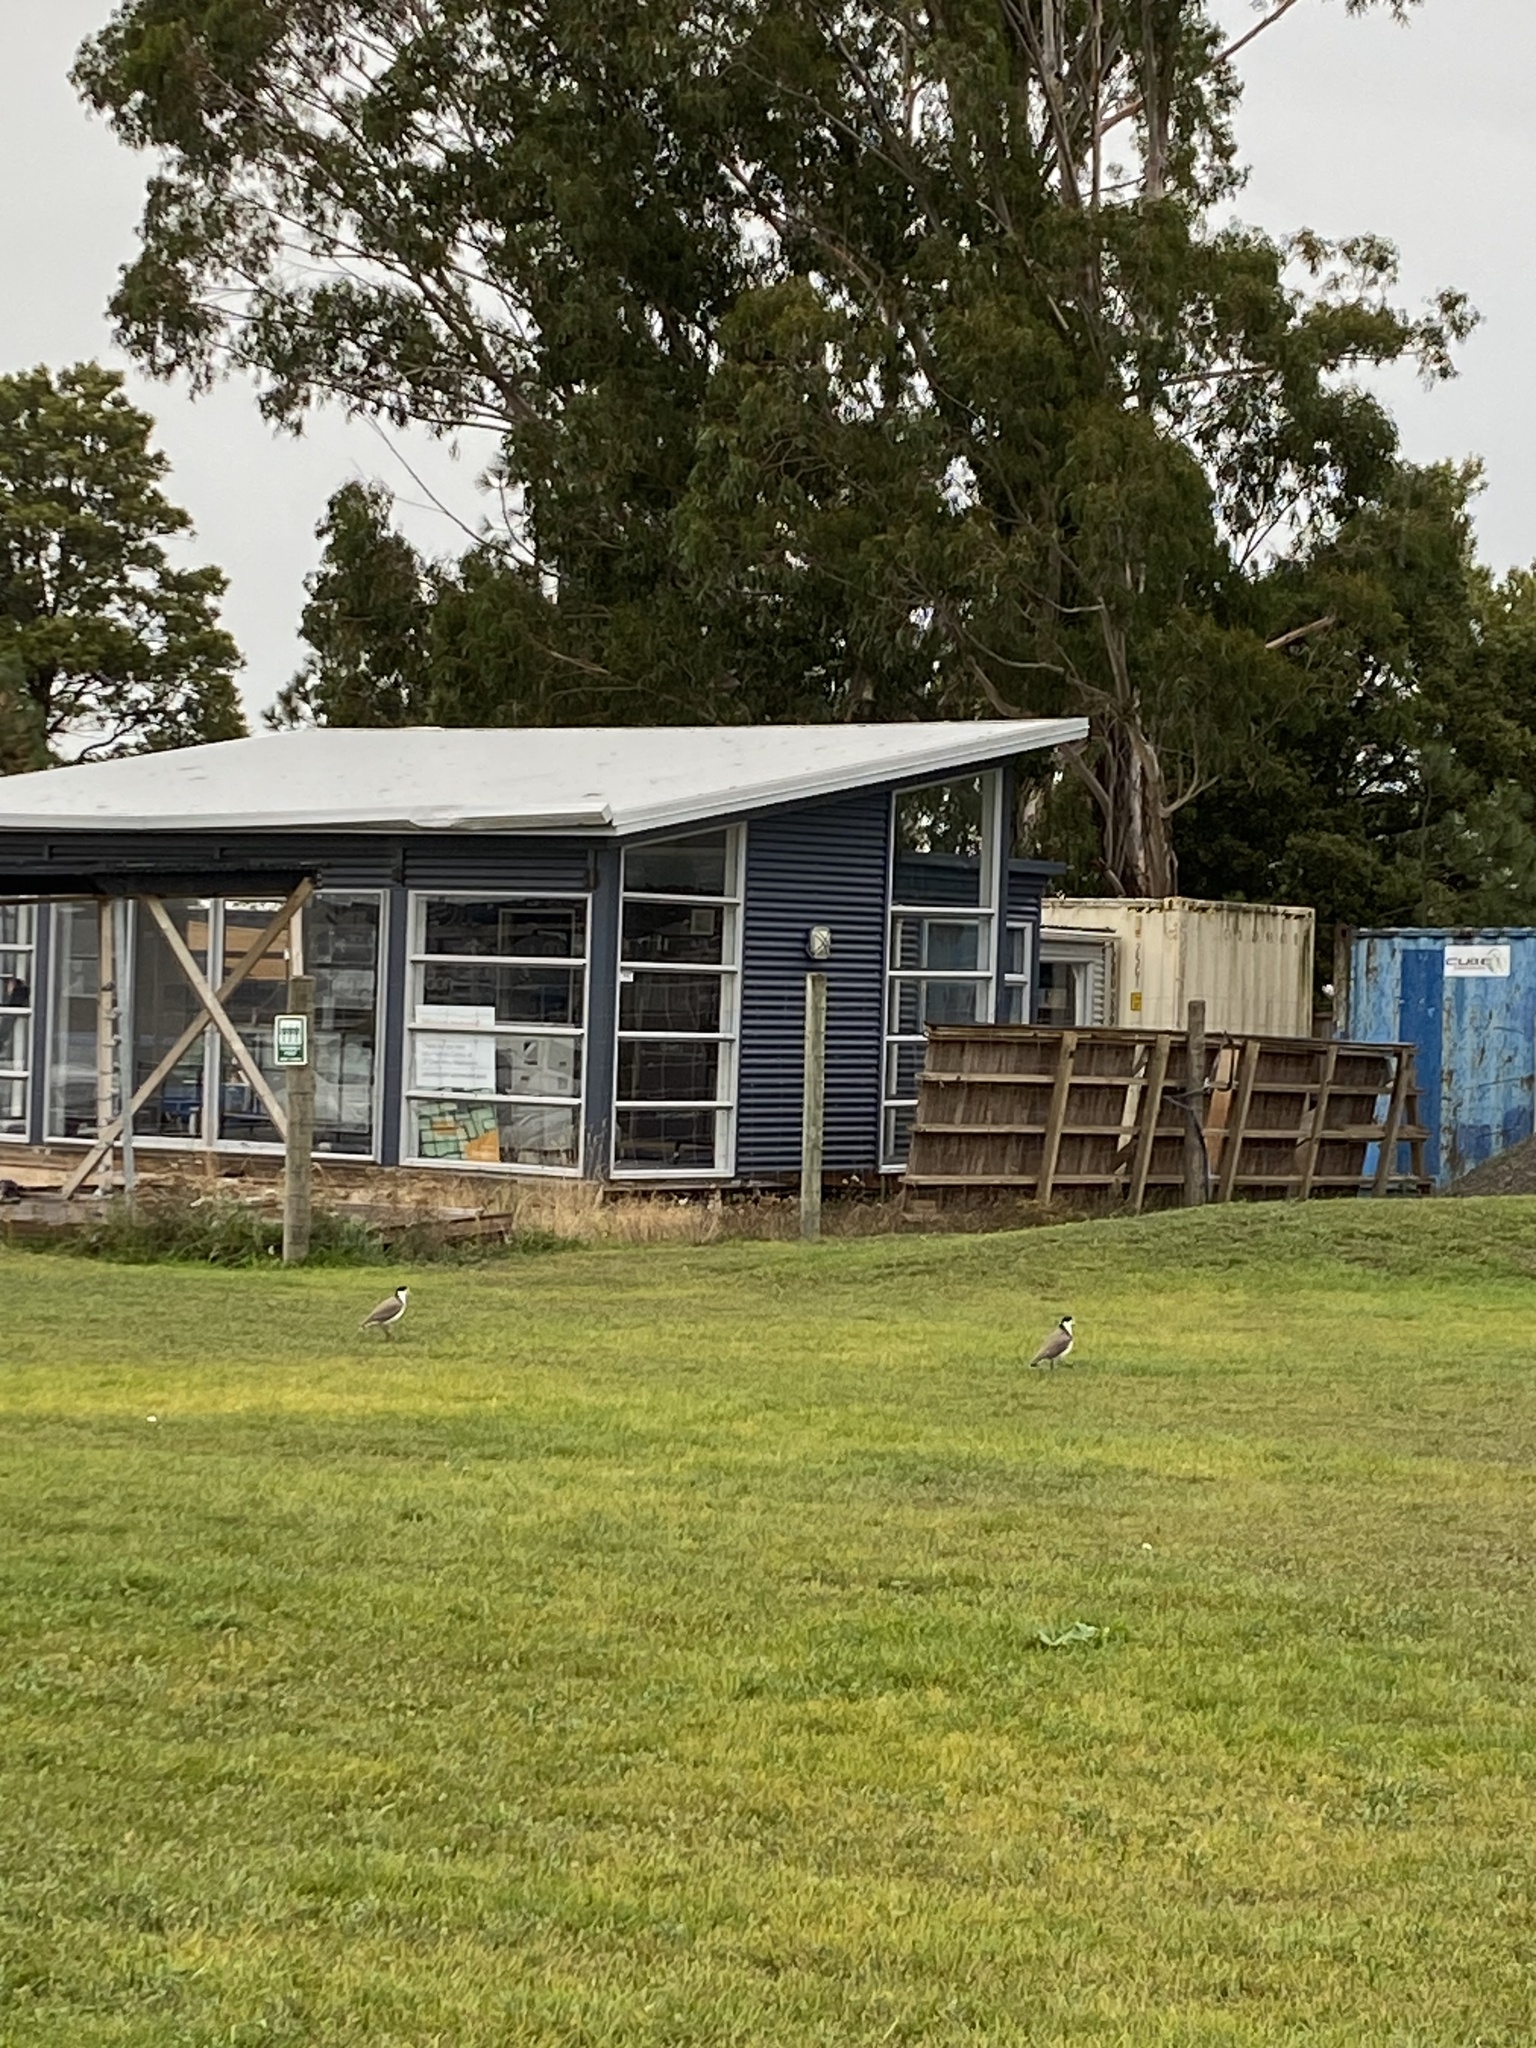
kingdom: Animalia
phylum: Chordata
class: Aves
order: Charadriiformes
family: Charadriidae
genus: Vanellus
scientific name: Vanellus miles
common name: Masked lapwing
